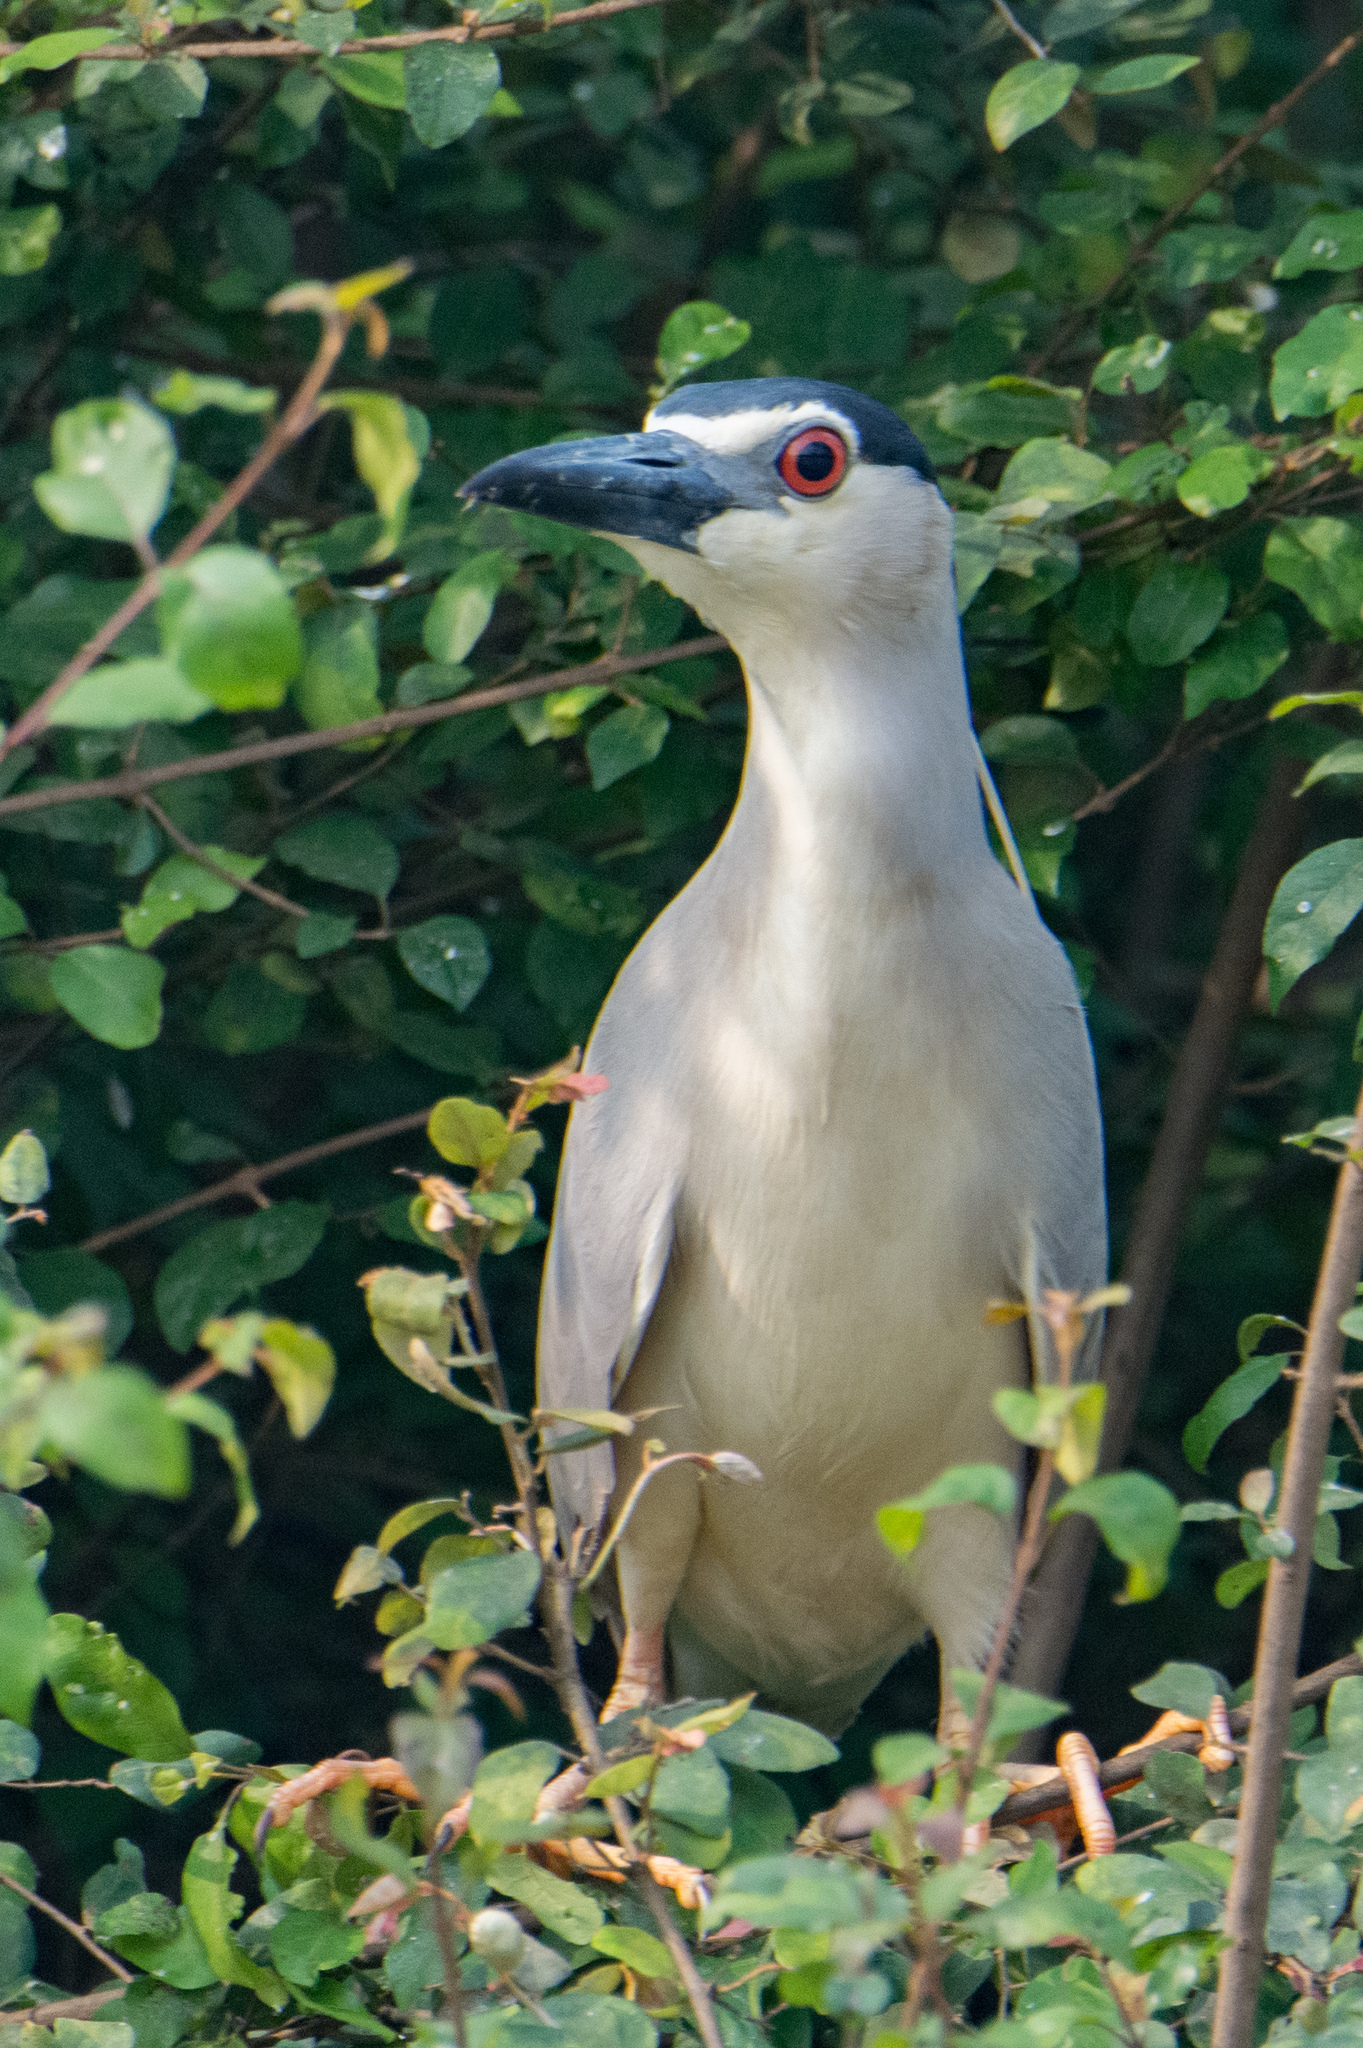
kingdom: Animalia
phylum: Chordata
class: Aves
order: Pelecaniformes
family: Ardeidae
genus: Nycticorax
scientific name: Nycticorax nycticorax
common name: Black-crowned night heron
